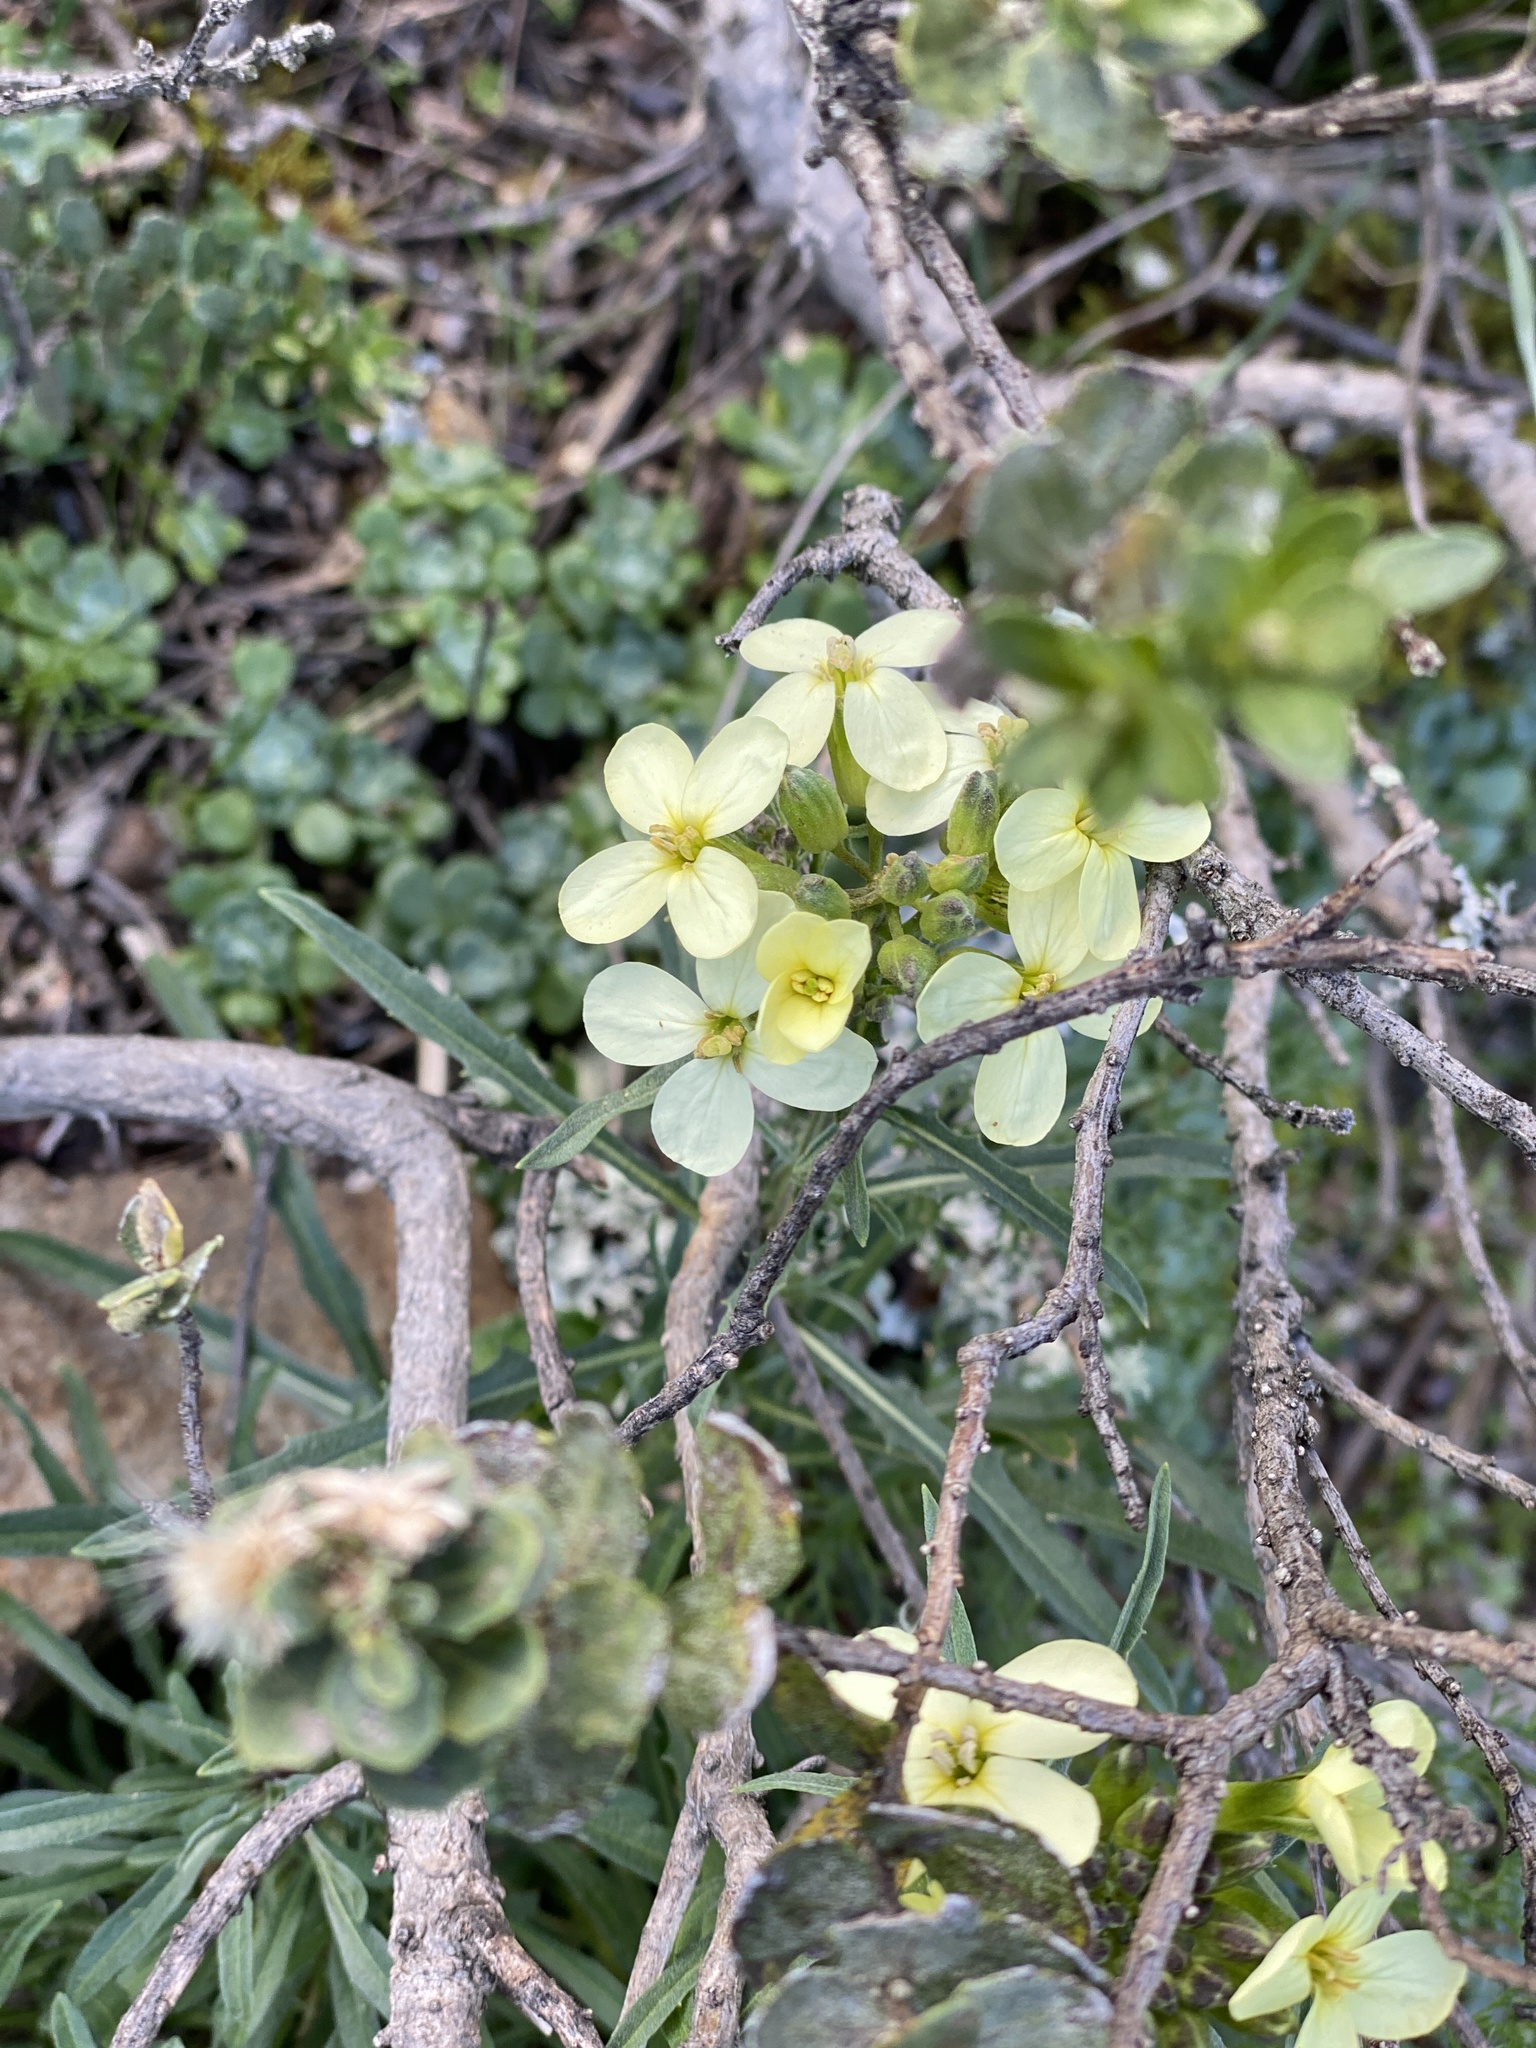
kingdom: Plantae
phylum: Tracheophyta
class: Magnoliopsida
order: Brassicales
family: Brassicaceae
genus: Erysimum
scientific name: Erysimum franciscanum
